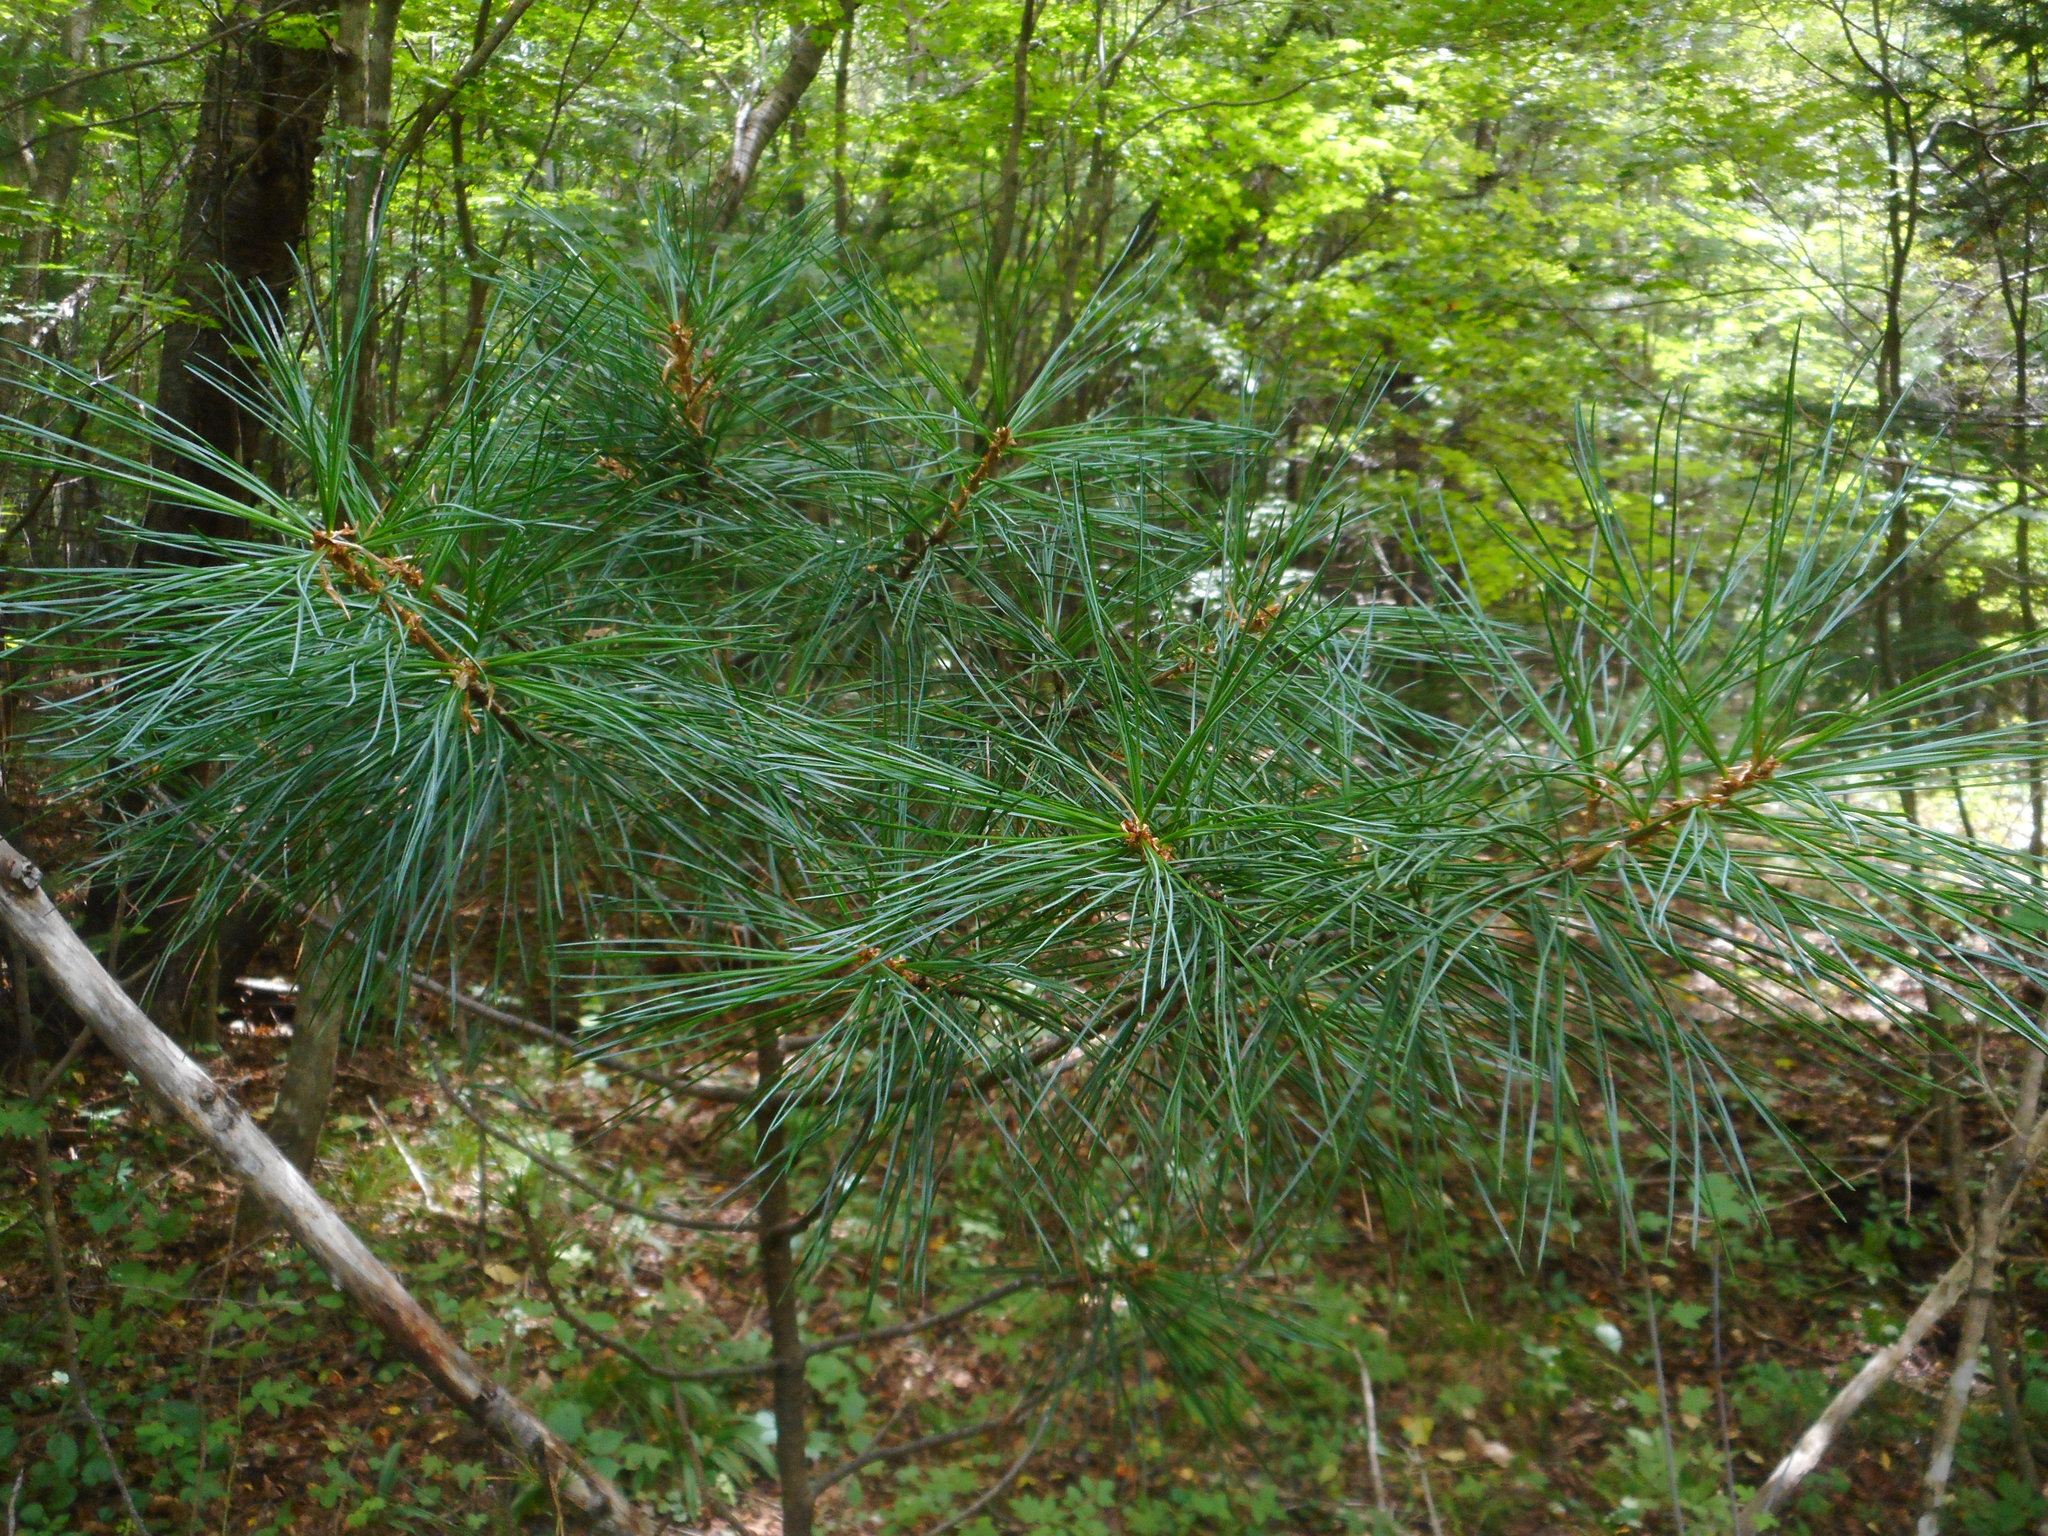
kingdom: Plantae
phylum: Tracheophyta
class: Pinopsida
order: Pinales
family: Pinaceae
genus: Pinus
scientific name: Pinus koraiensis
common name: Korean pine
